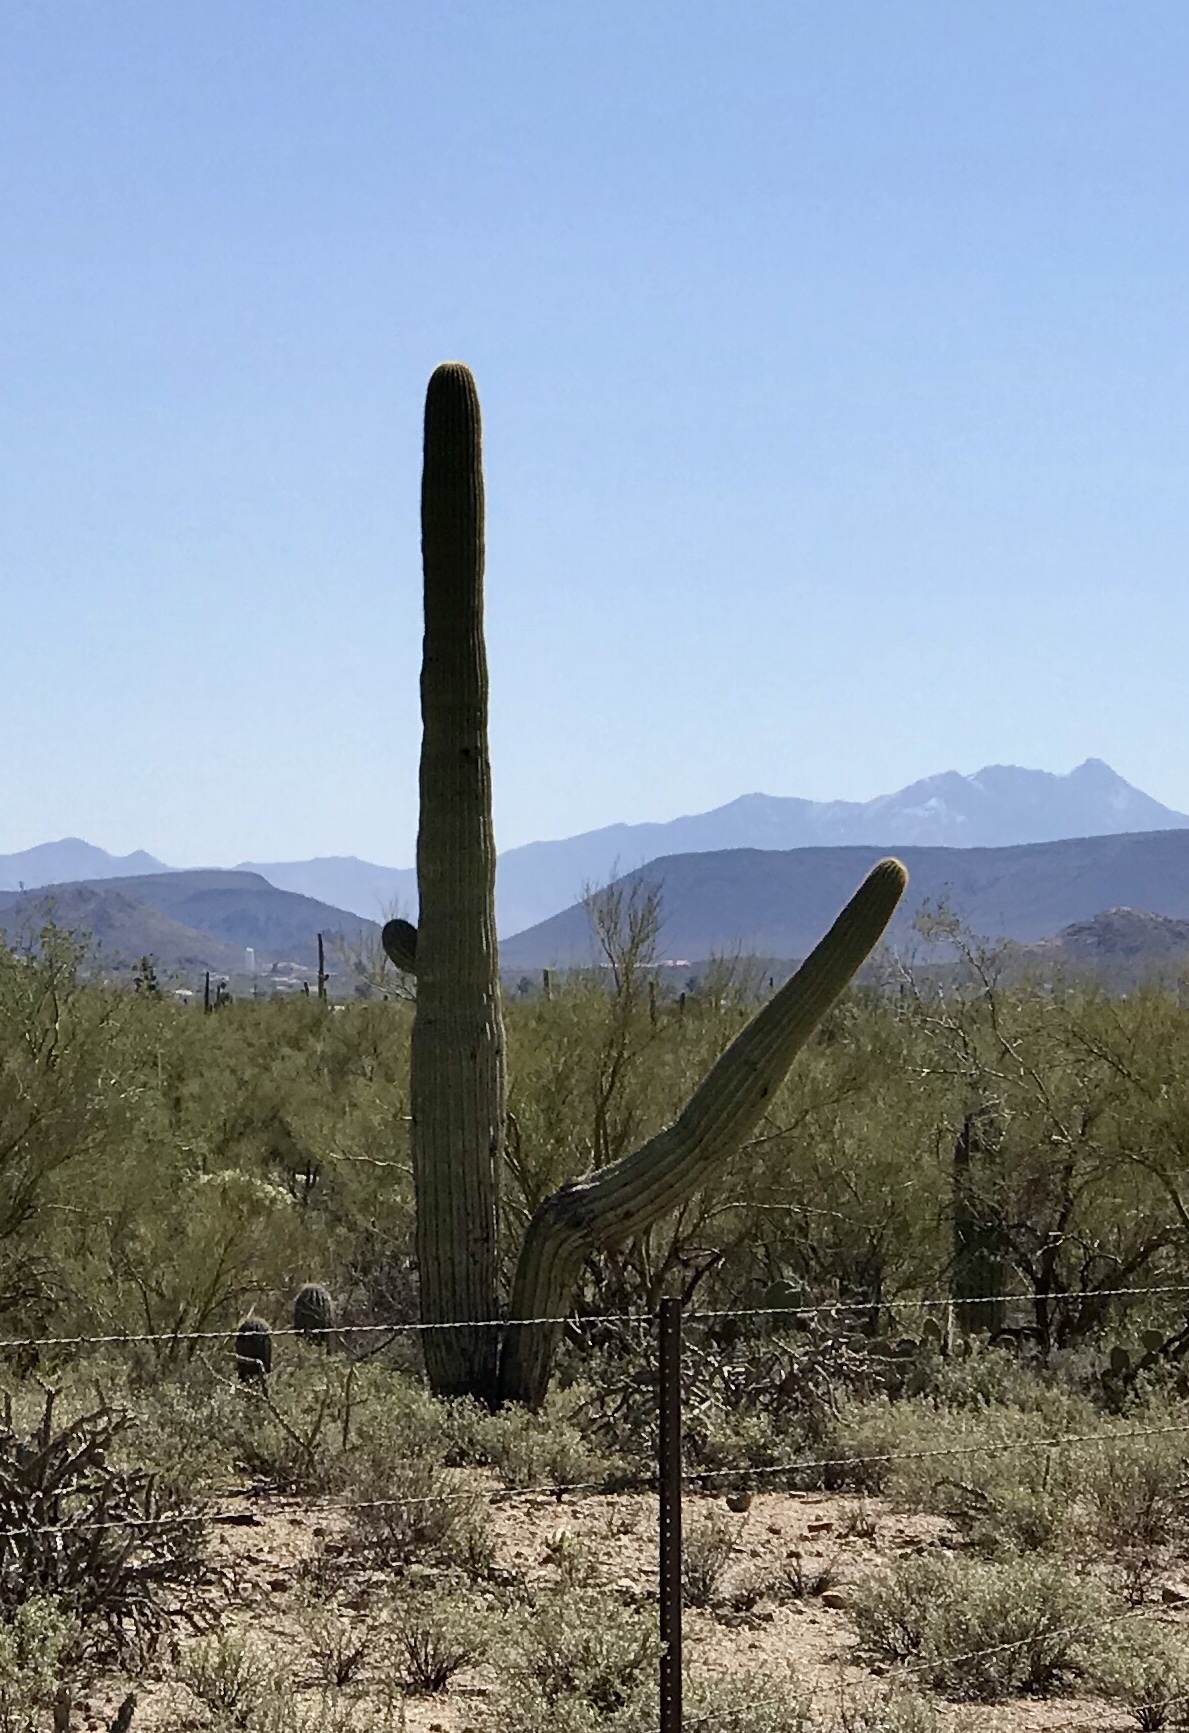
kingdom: Plantae
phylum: Tracheophyta
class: Magnoliopsida
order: Caryophyllales
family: Cactaceae
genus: Carnegiea
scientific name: Carnegiea gigantea
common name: Saguaro
